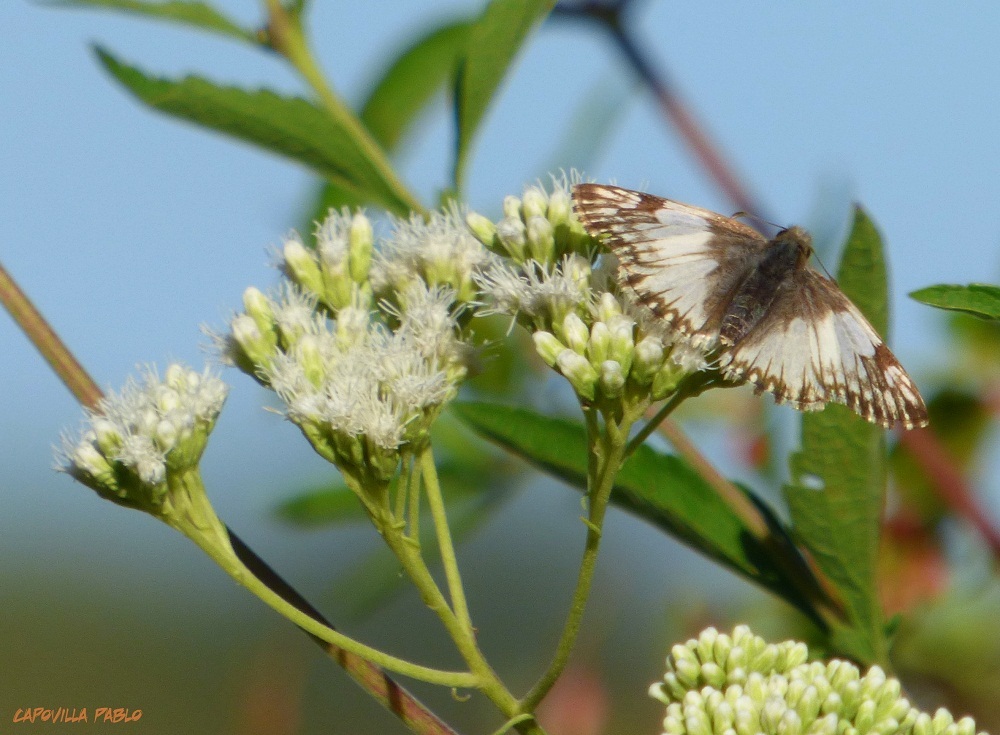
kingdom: Animalia
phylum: Arthropoda
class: Insecta
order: Lepidoptera
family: Hesperiidae
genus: Heliopetes
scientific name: Heliopetes omrina
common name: Stained white-skipper
